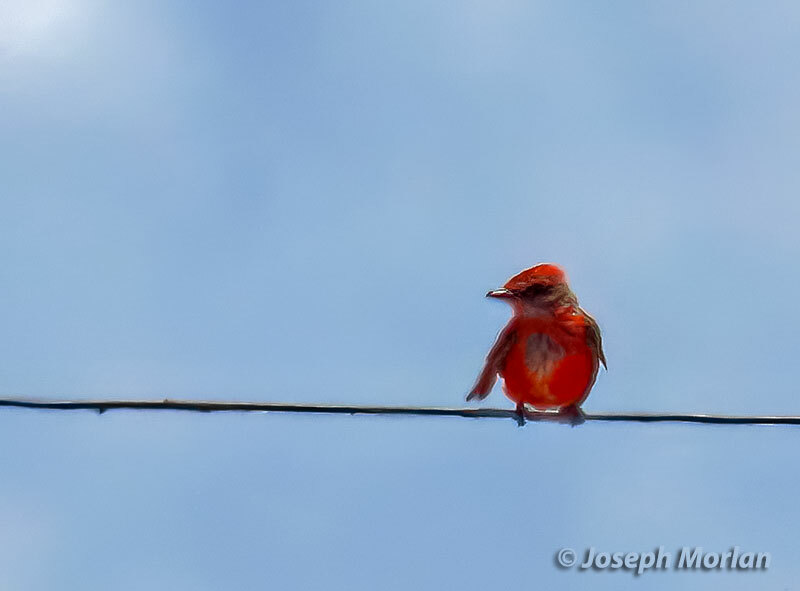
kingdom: Animalia
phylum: Chordata
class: Aves
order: Passeriformes
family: Tyrannidae
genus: Pyrocephalus
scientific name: Pyrocephalus rubinus
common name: Vermilion flycatcher
